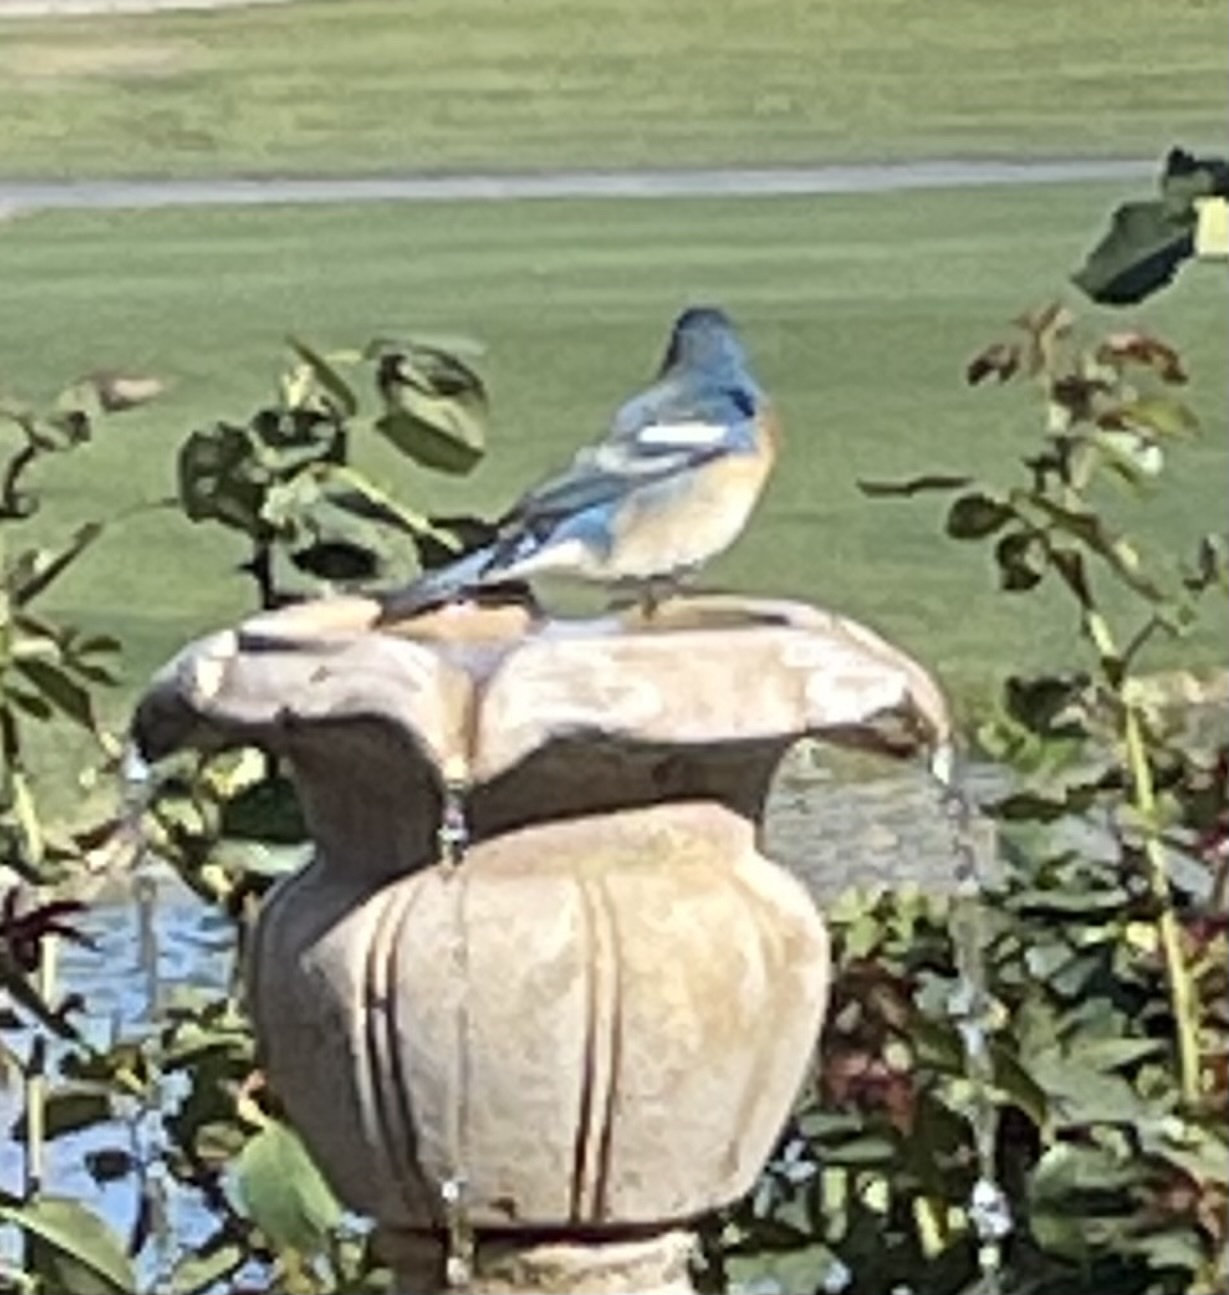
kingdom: Animalia
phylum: Chordata
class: Aves
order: Passeriformes
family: Cardinalidae
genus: Passerina
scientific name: Passerina amoena
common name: Lazuli bunting
